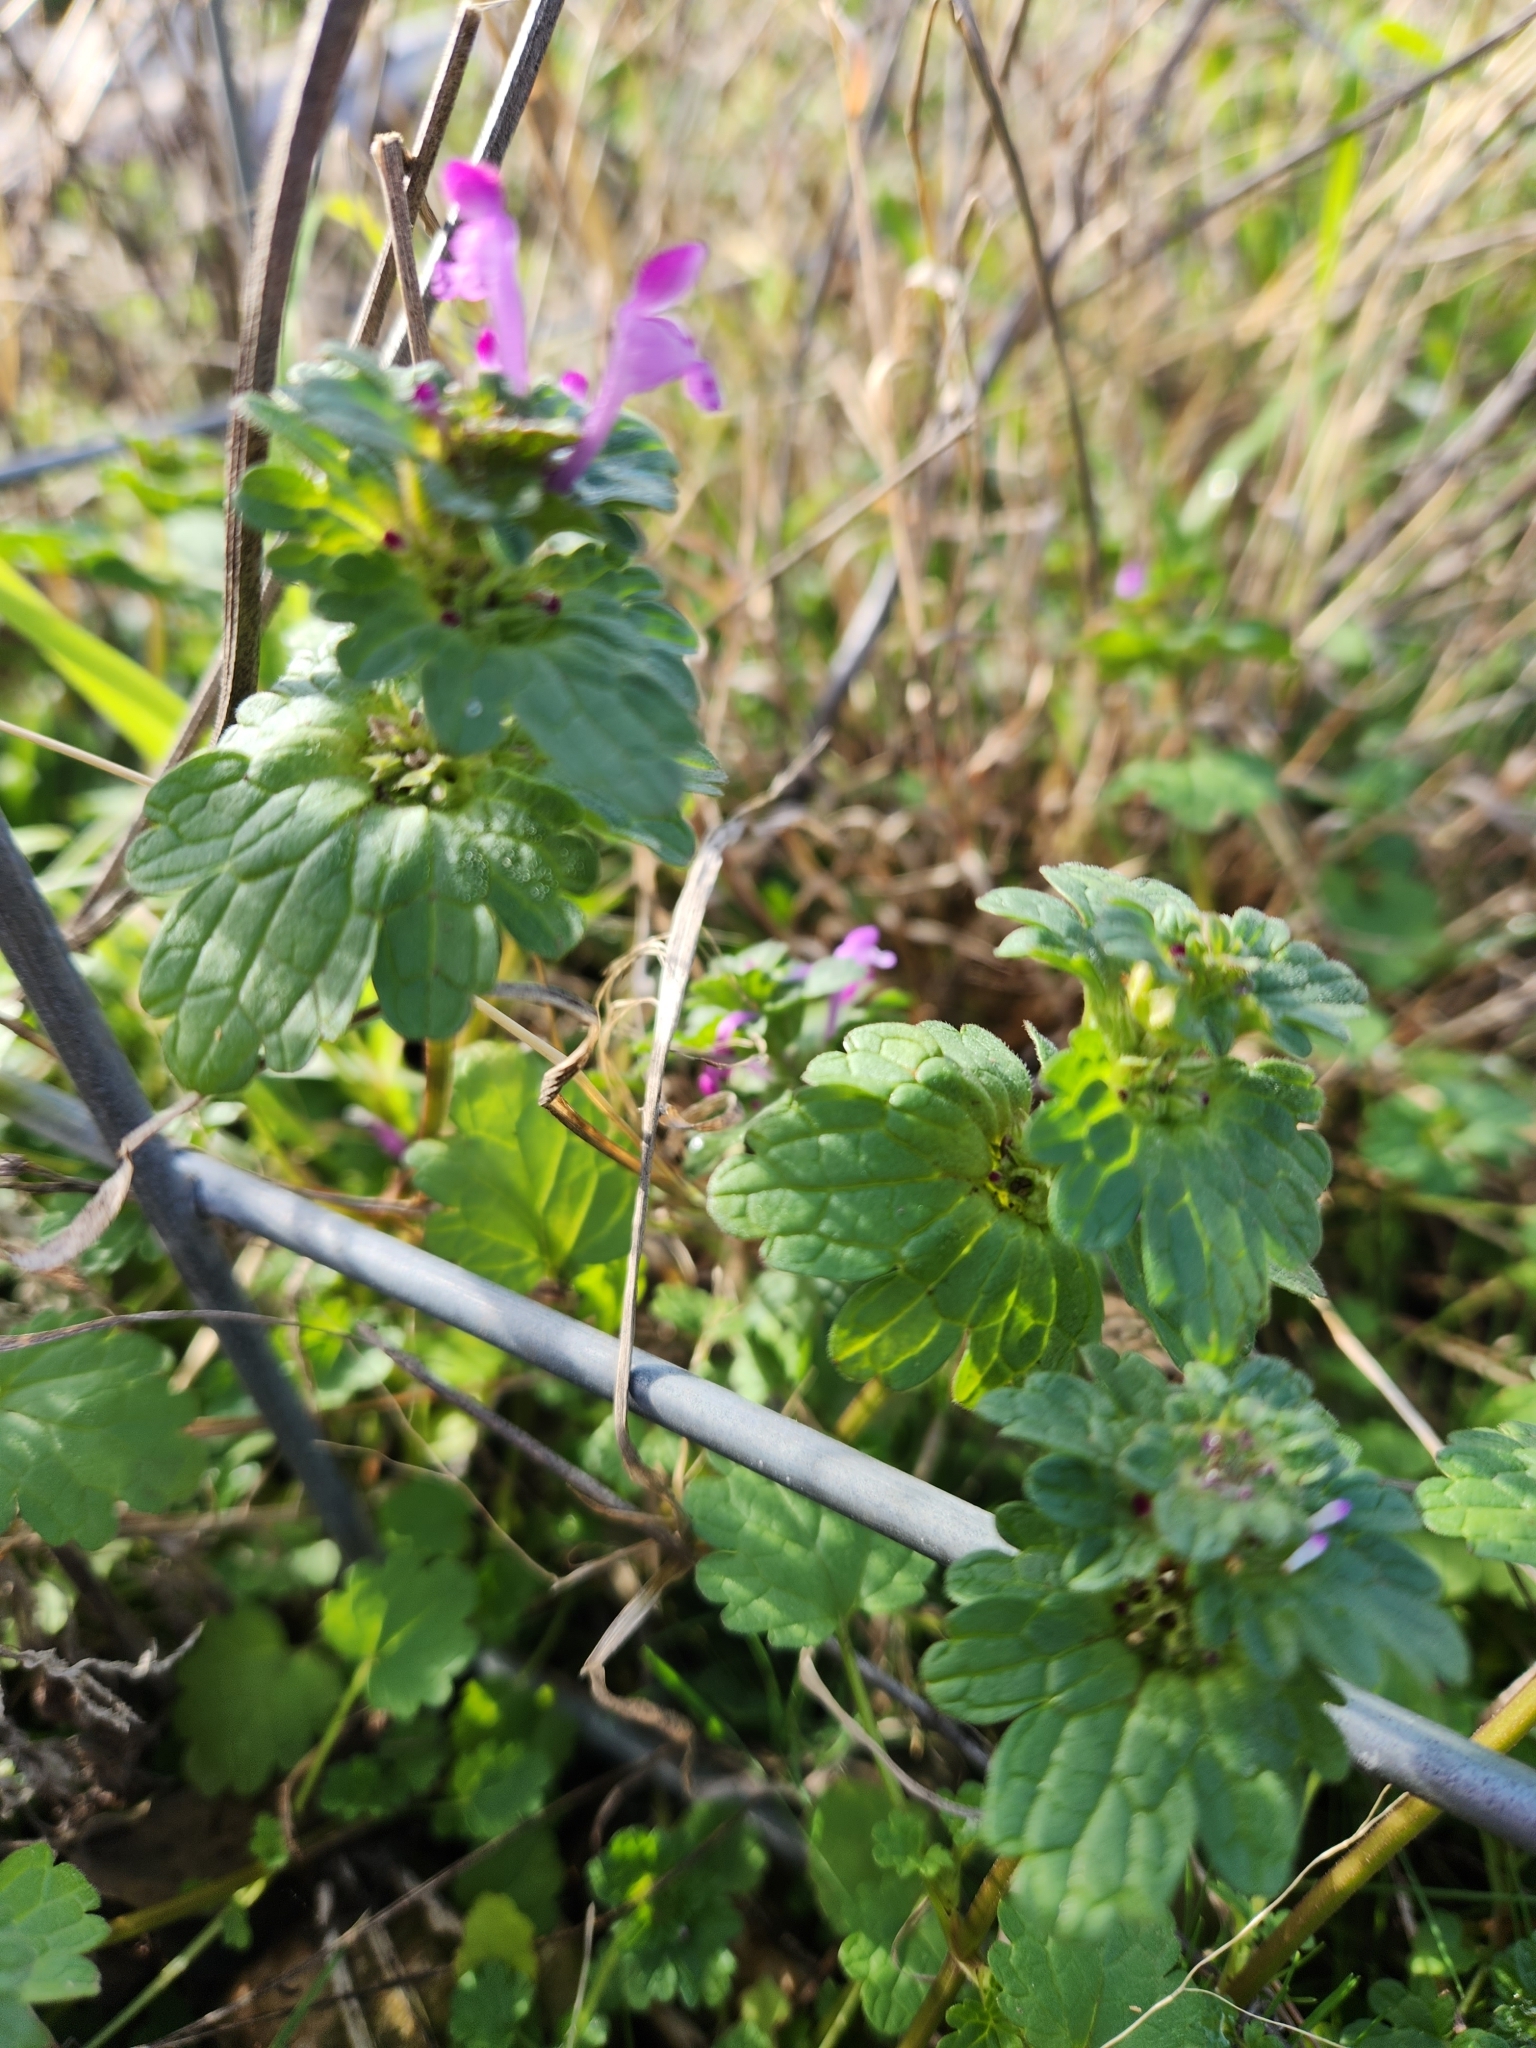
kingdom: Plantae
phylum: Tracheophyta
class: Magnoliopsida
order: Lamiales
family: Lamiaceae
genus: Lamium
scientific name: Lamium amplexicaule
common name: Henbit dead-nettle
